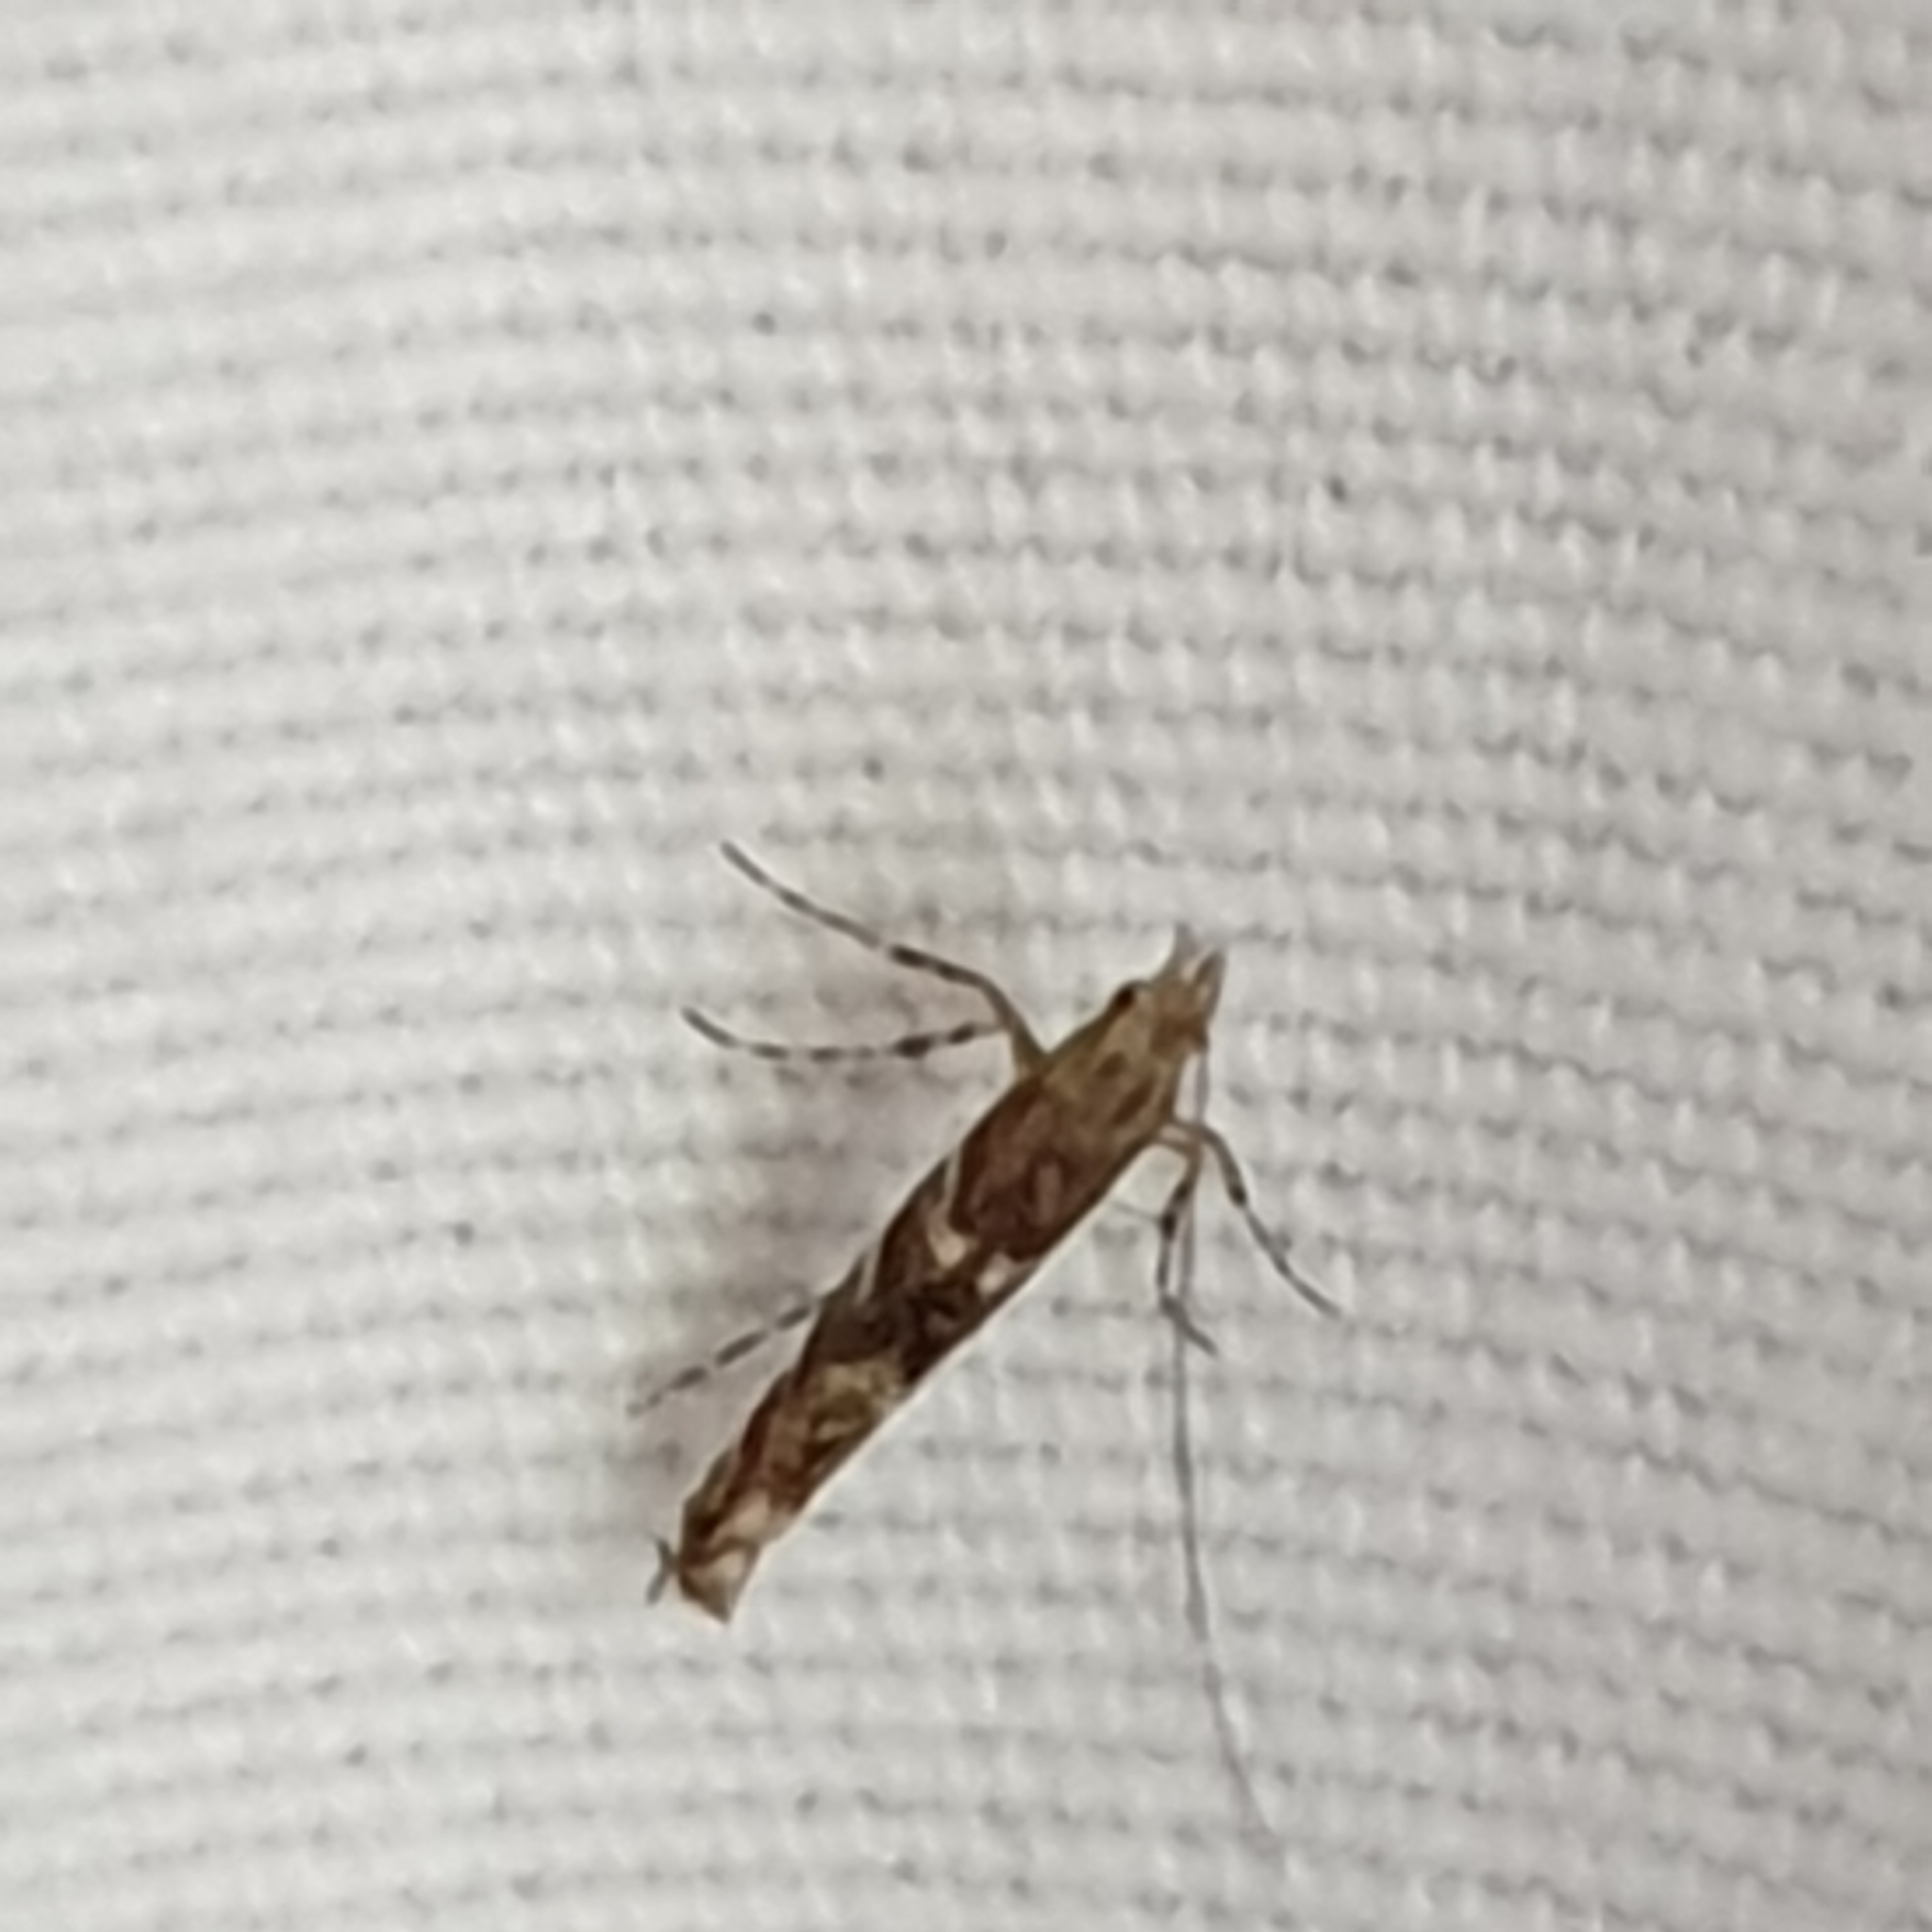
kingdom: Animalia
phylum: Arthropoda
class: Insecta
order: Lepidoptera
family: Gracillariidae
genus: Acrocercops
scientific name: Acrocercops brongniardella
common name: Brown oak slender
